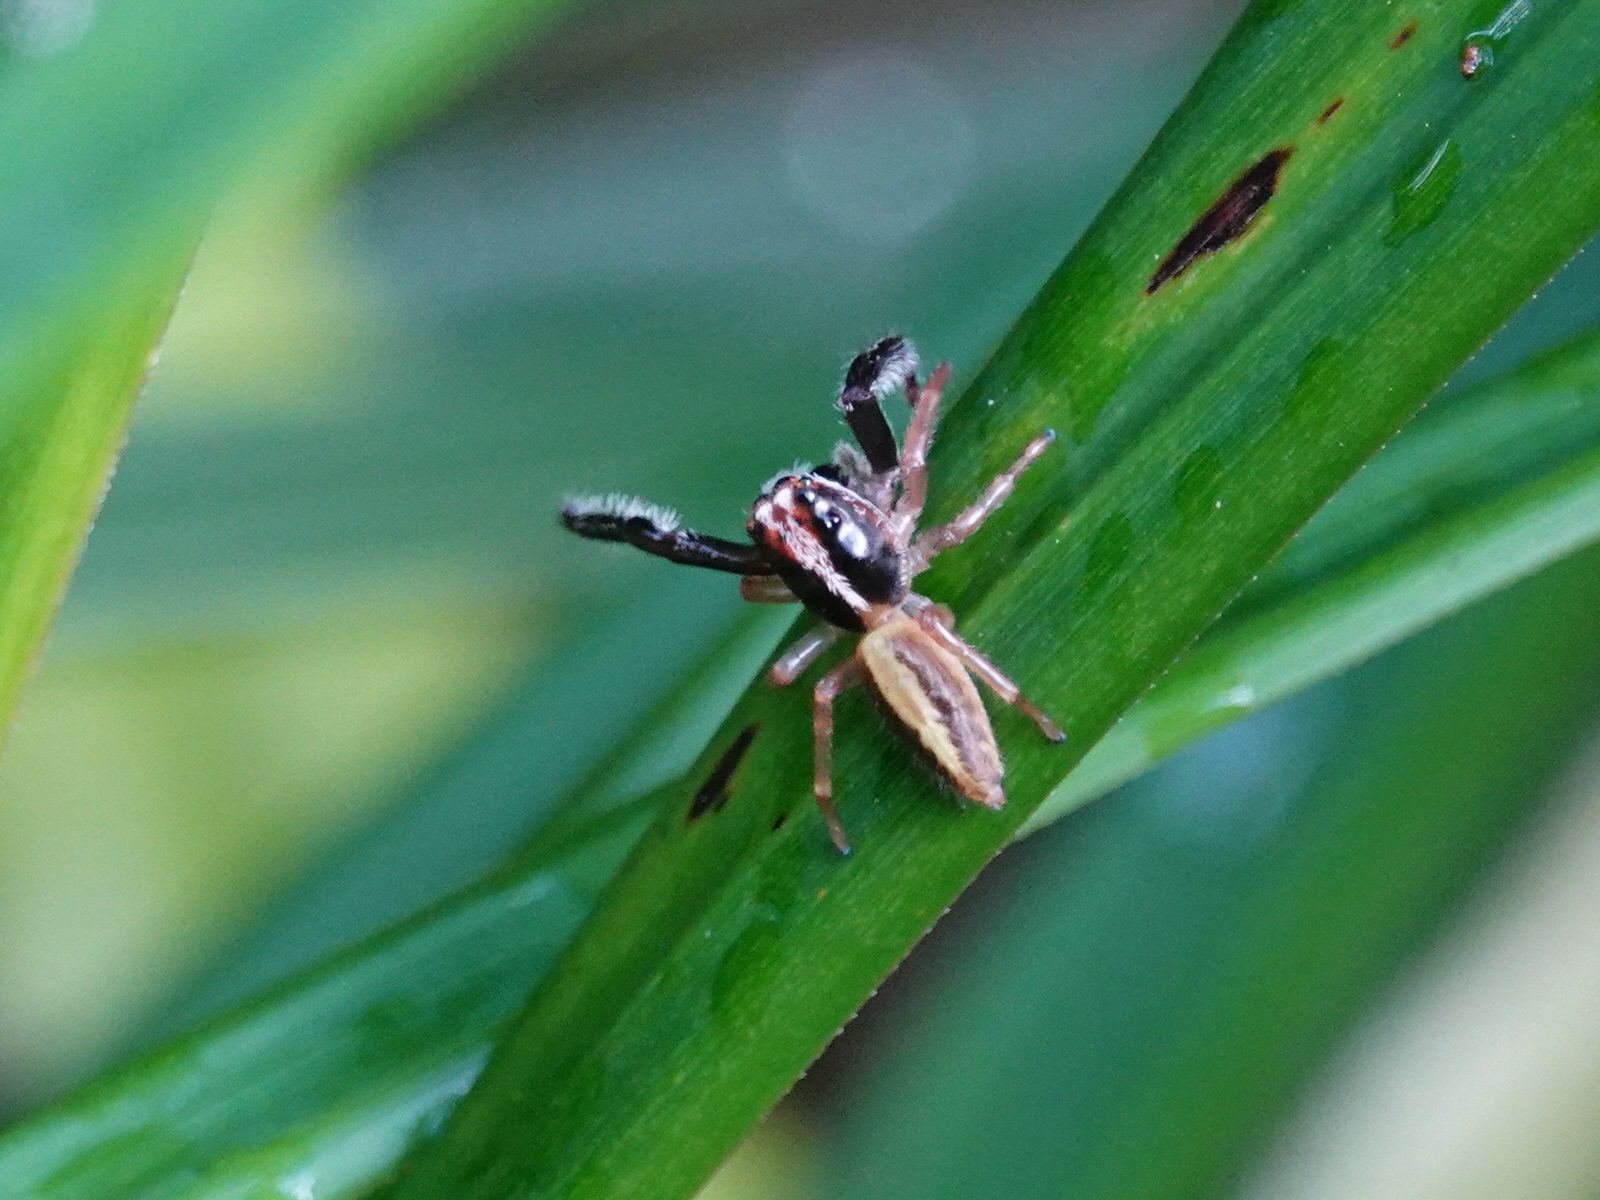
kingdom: Animalia
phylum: Arthropoda
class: Arachnida
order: Araneae
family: Salticidae
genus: Trite
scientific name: Trite planiceps
